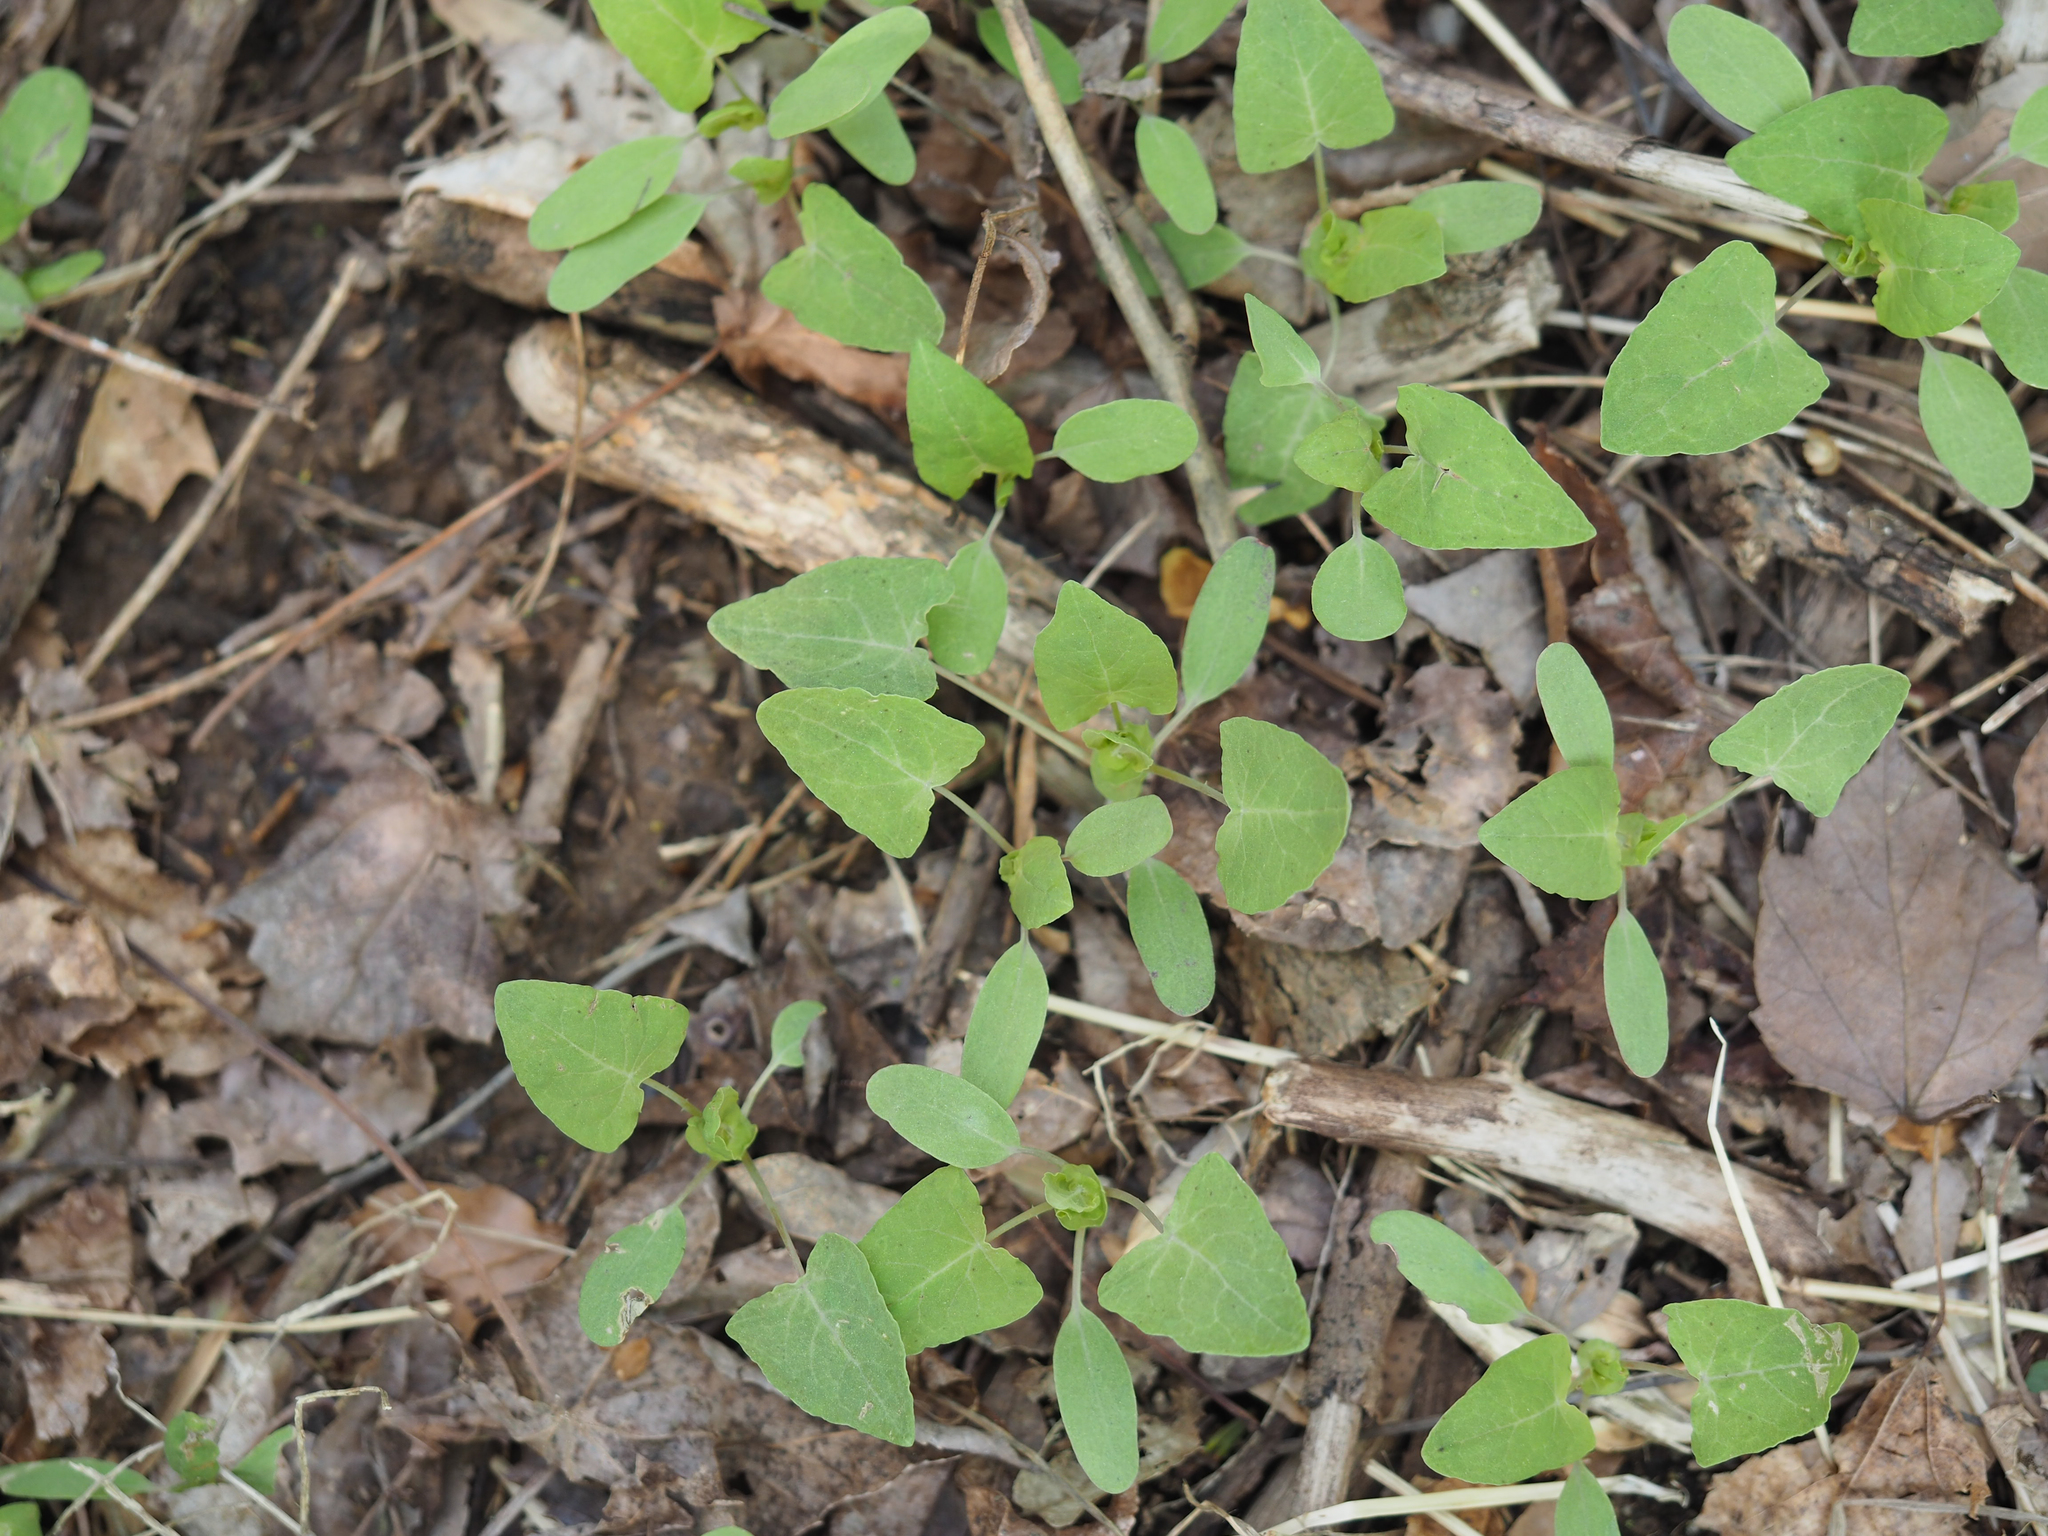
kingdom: Plantae
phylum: Tracheophyta
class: Magnoliopsida
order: Caryophyllales
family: Polygonaceae
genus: Persicaria
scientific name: Persicaria perfoliata
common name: Asiatic tearthumb
